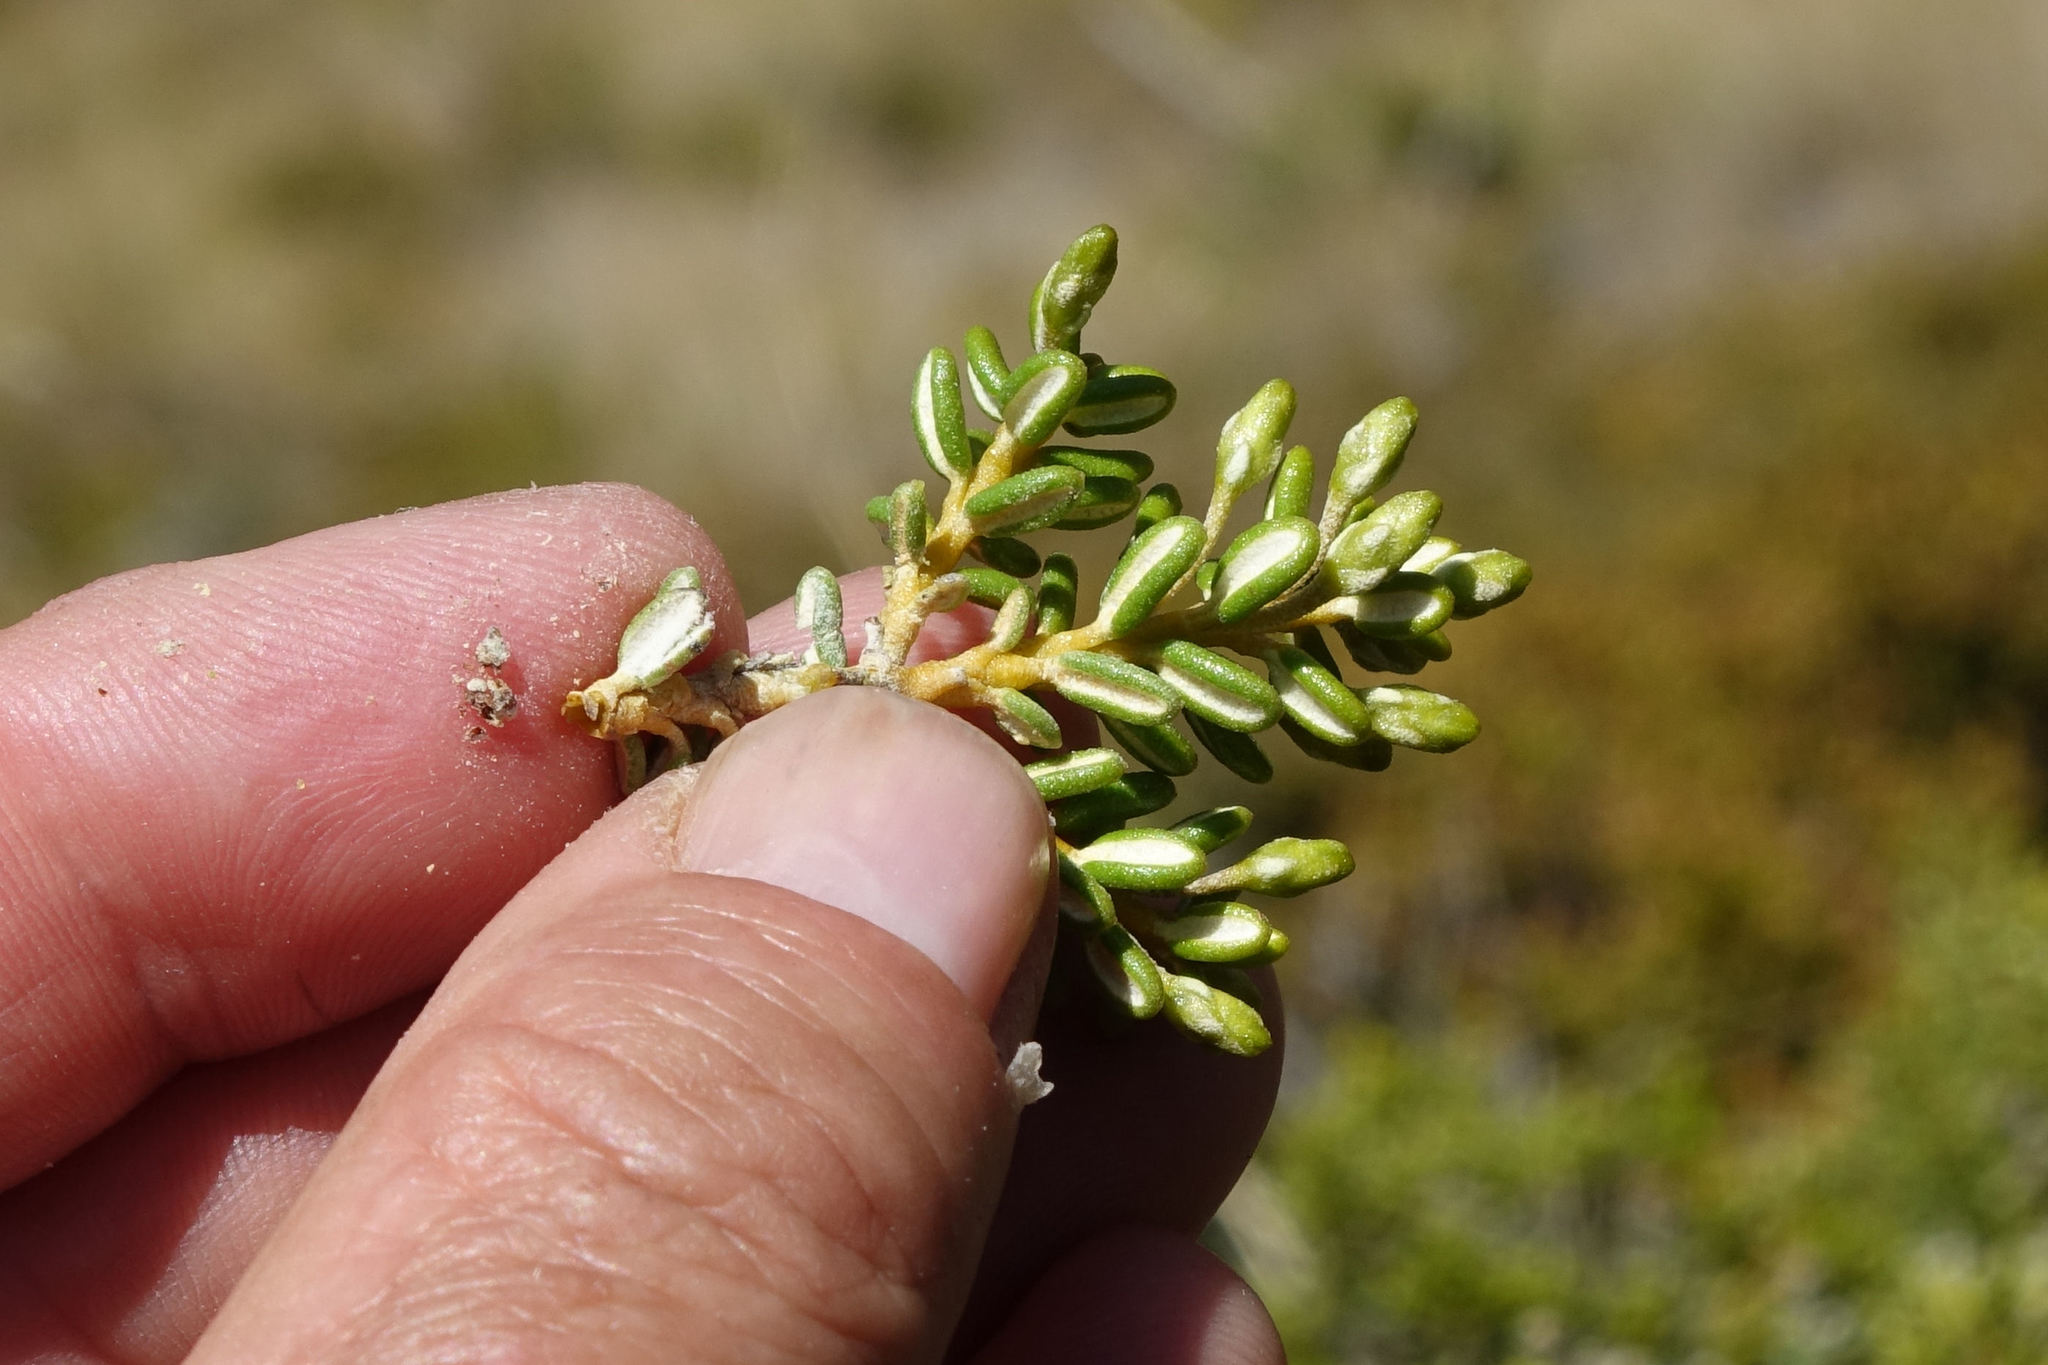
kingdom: Plantae
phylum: Tracheophyta
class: Magnoliopsida
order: Asterales
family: Asteraceae
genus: Olearia
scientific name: Olearia cymbifolia
